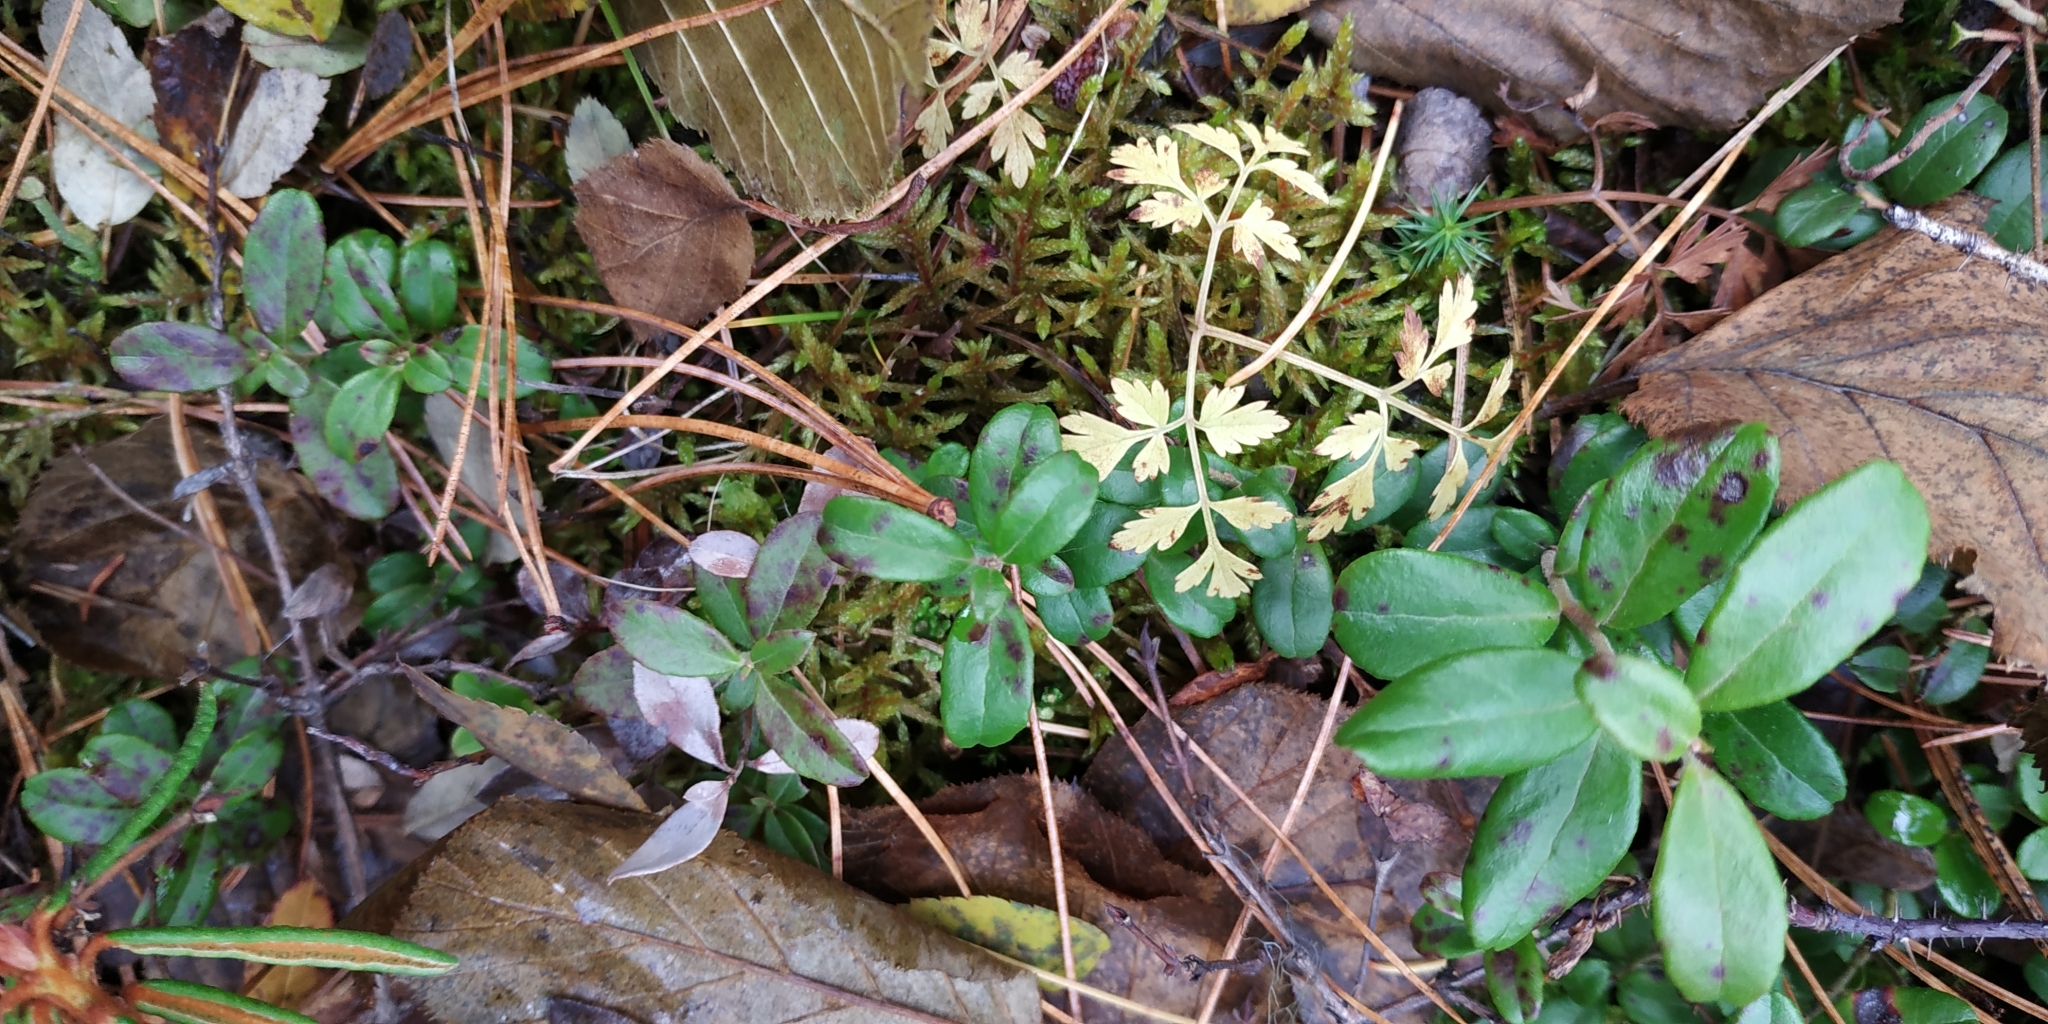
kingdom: Plantae
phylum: Tracheophyta
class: Magnoliopsida
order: Apiales
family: Apiaceae
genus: Aegopodium
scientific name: Aegopodium alpestre
